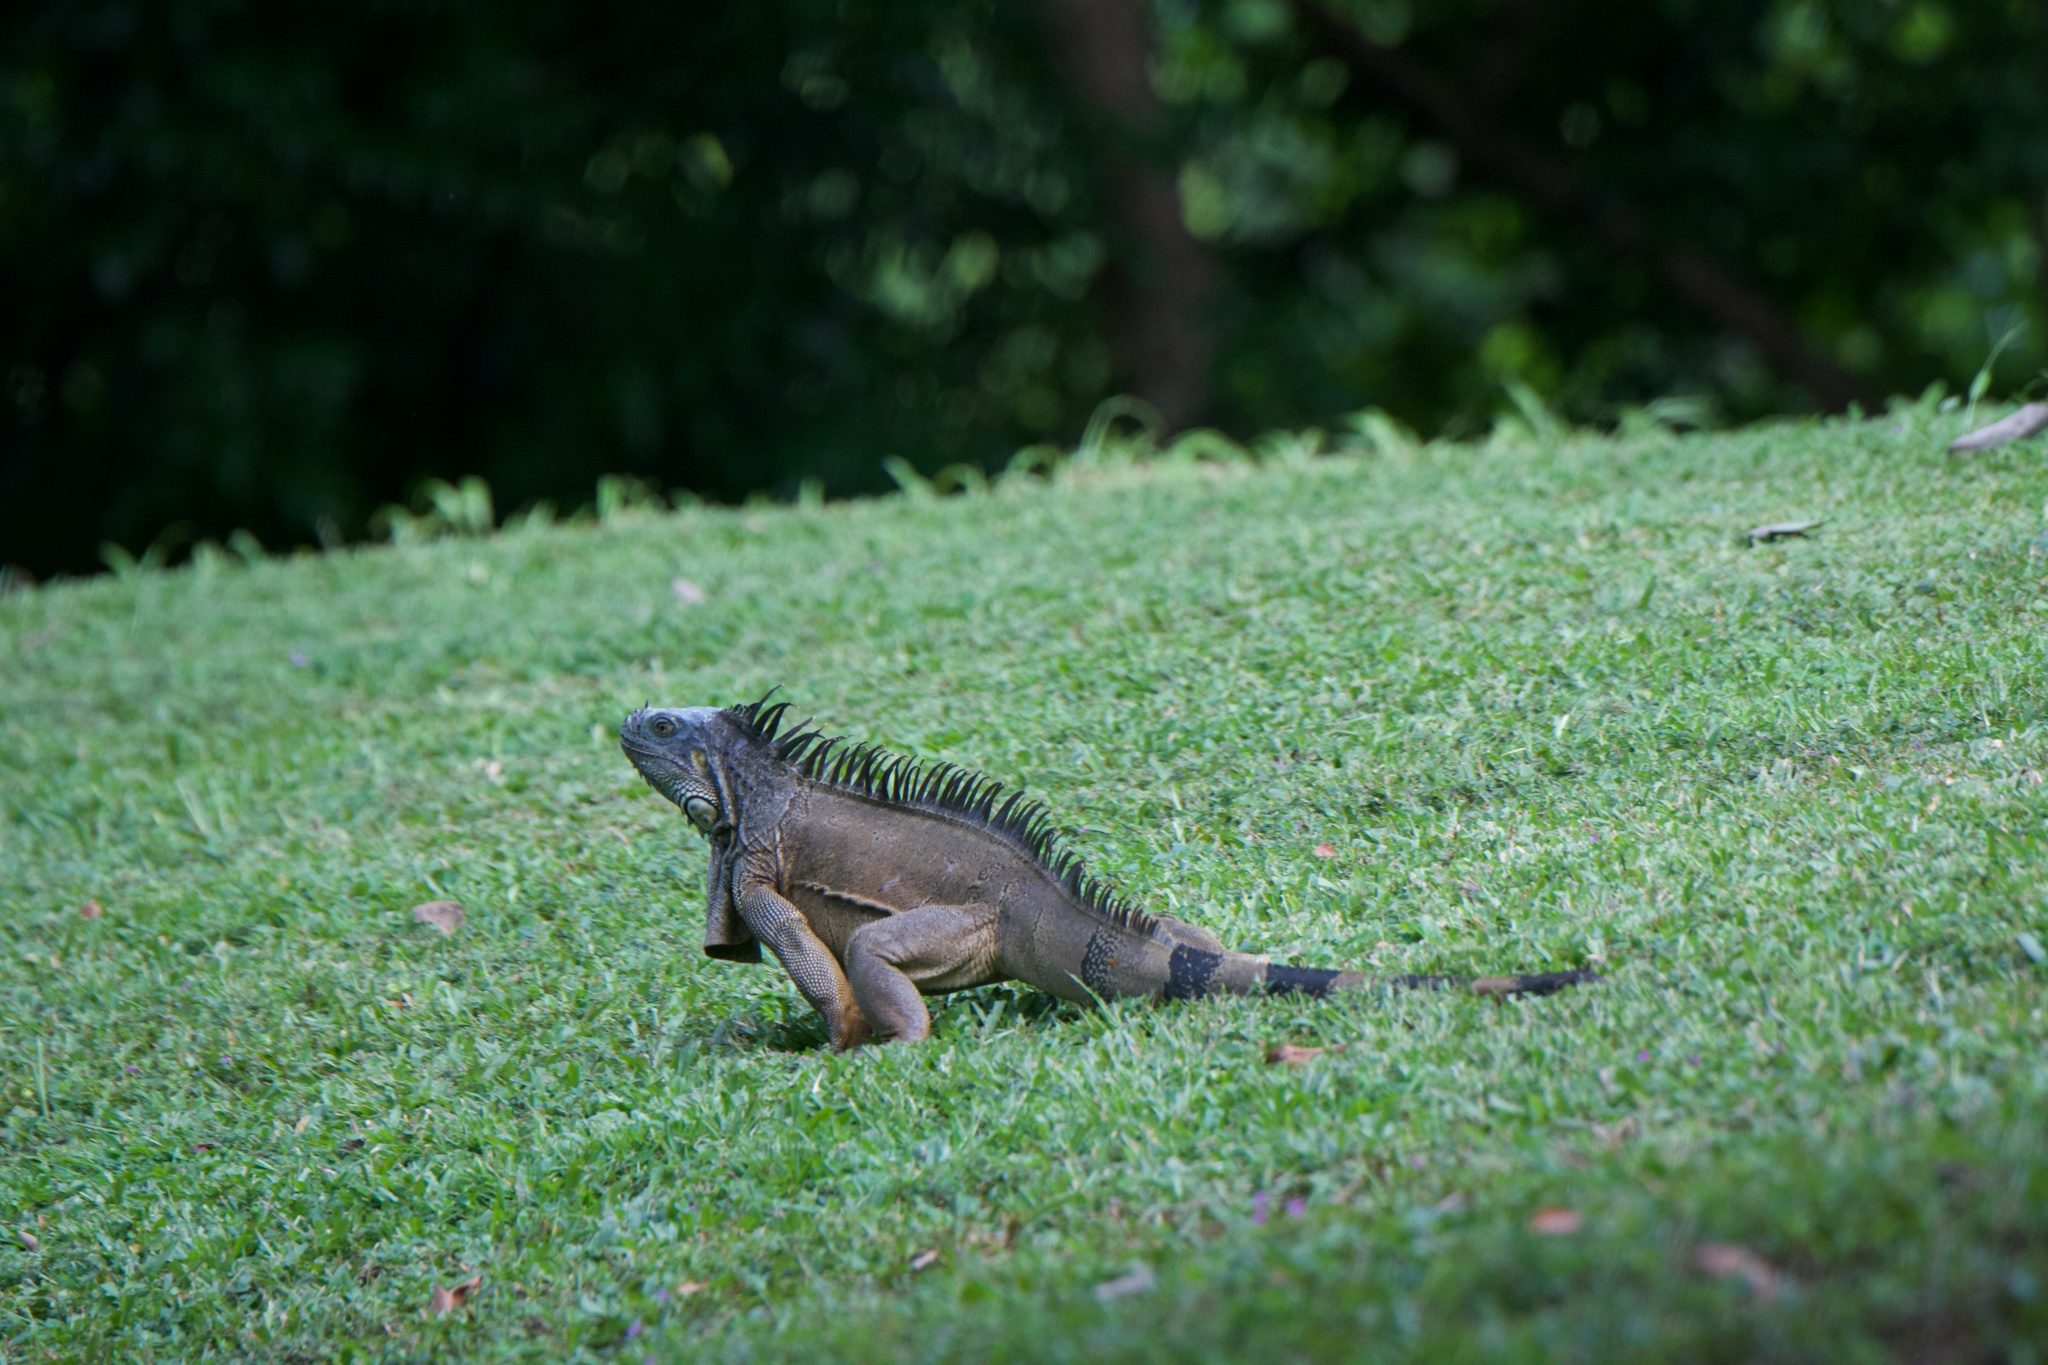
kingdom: Animalia
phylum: Chordata
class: Squamata
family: Iguanidae
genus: Iguana
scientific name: Iguana iguana
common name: Green iguana
